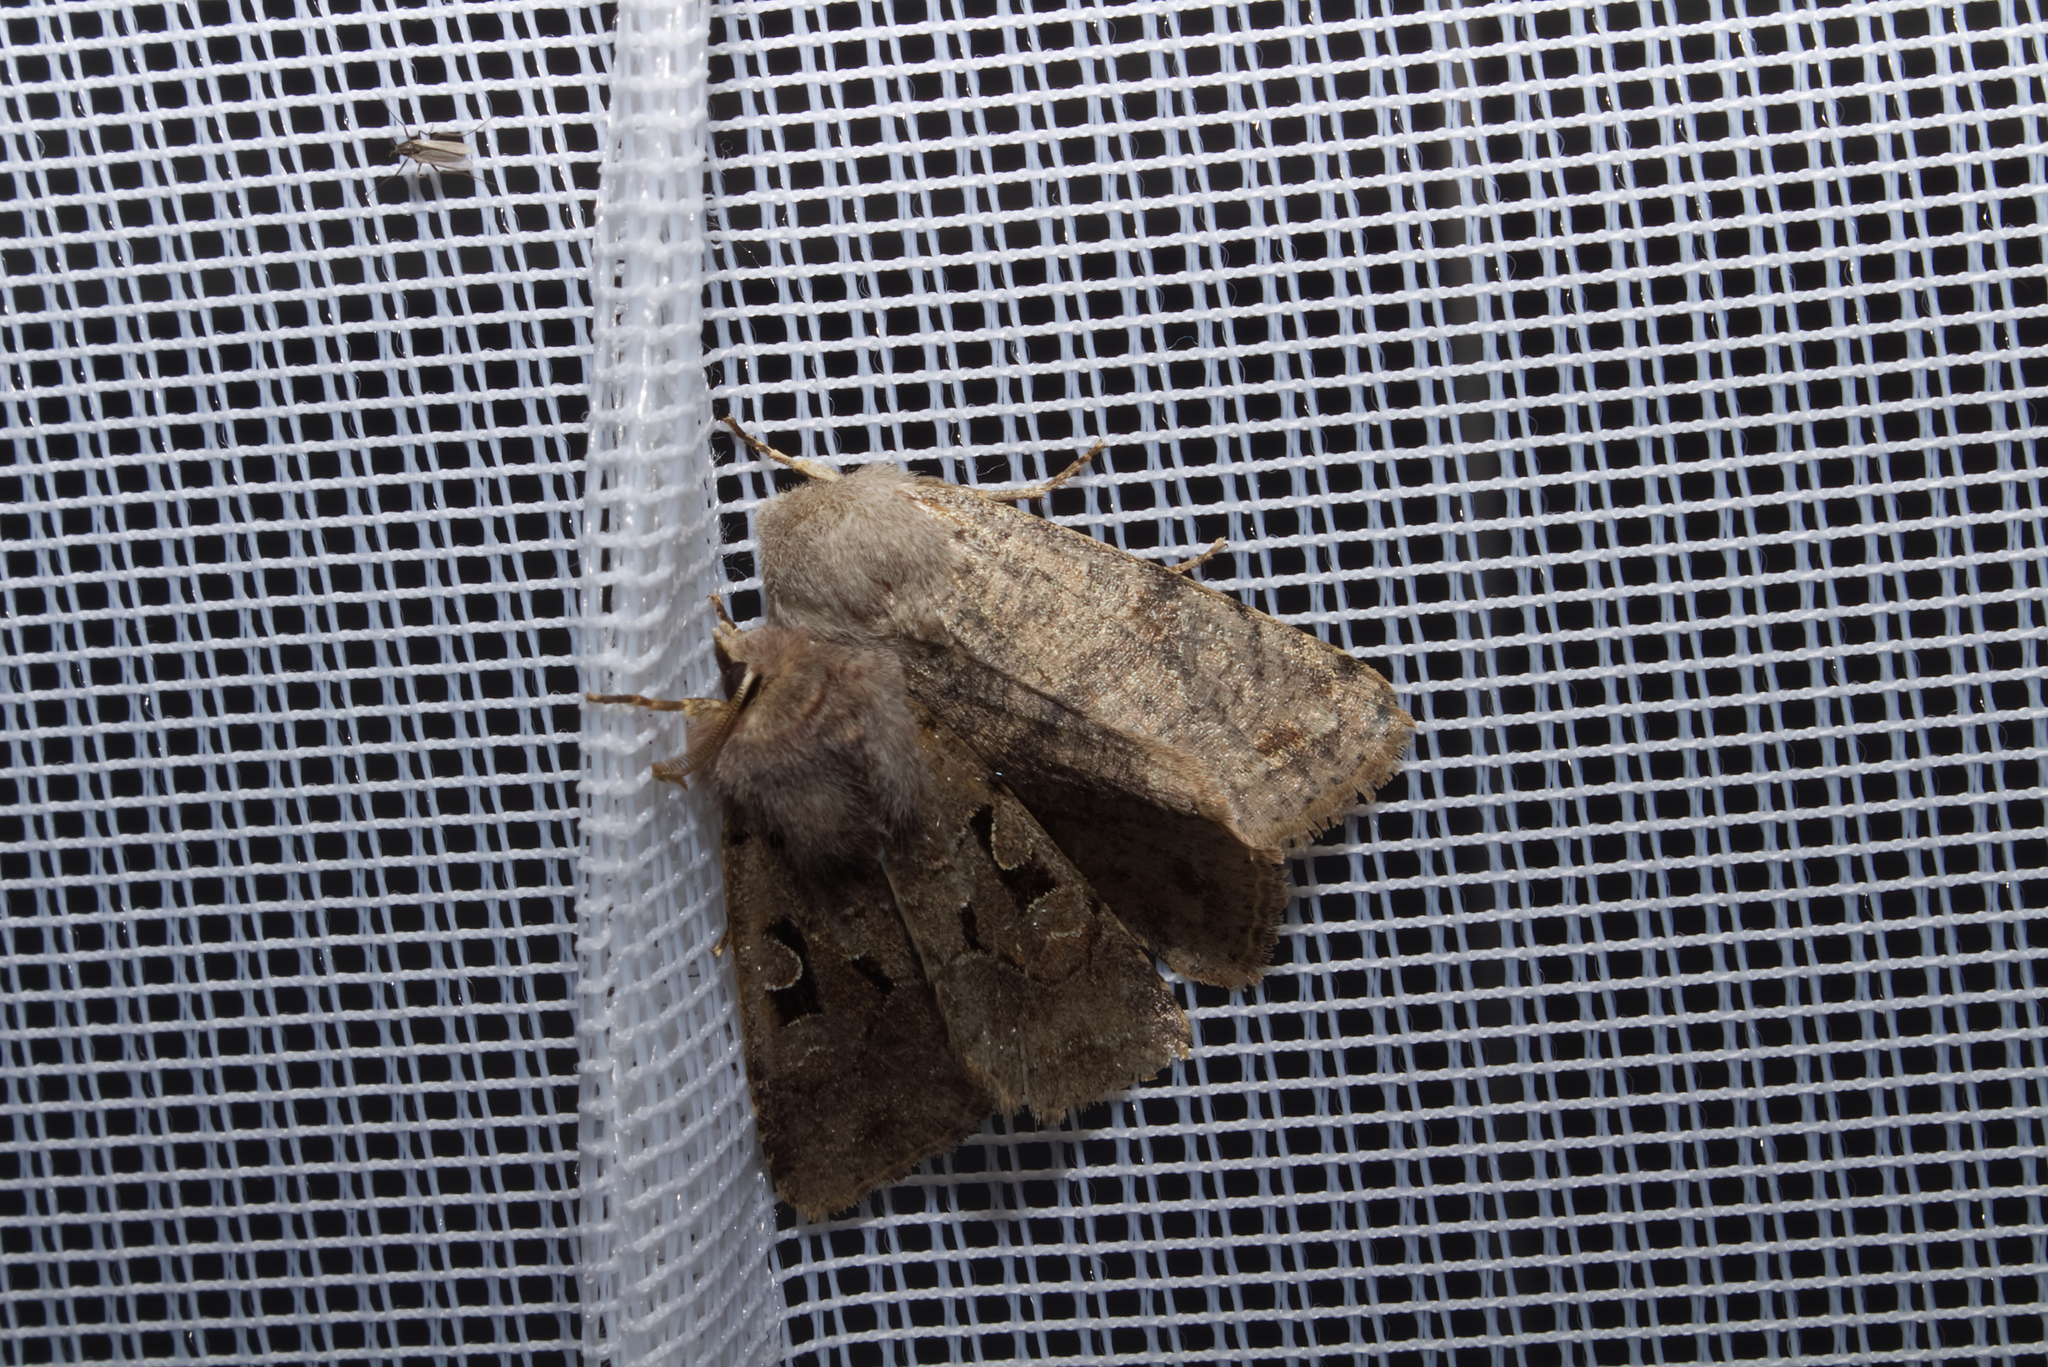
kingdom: Animalia
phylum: Arthropoda
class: Insecta
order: Lepidoptera
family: Noctuidae
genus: Orthosia
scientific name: Orthosia incerta
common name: Clouded drab
